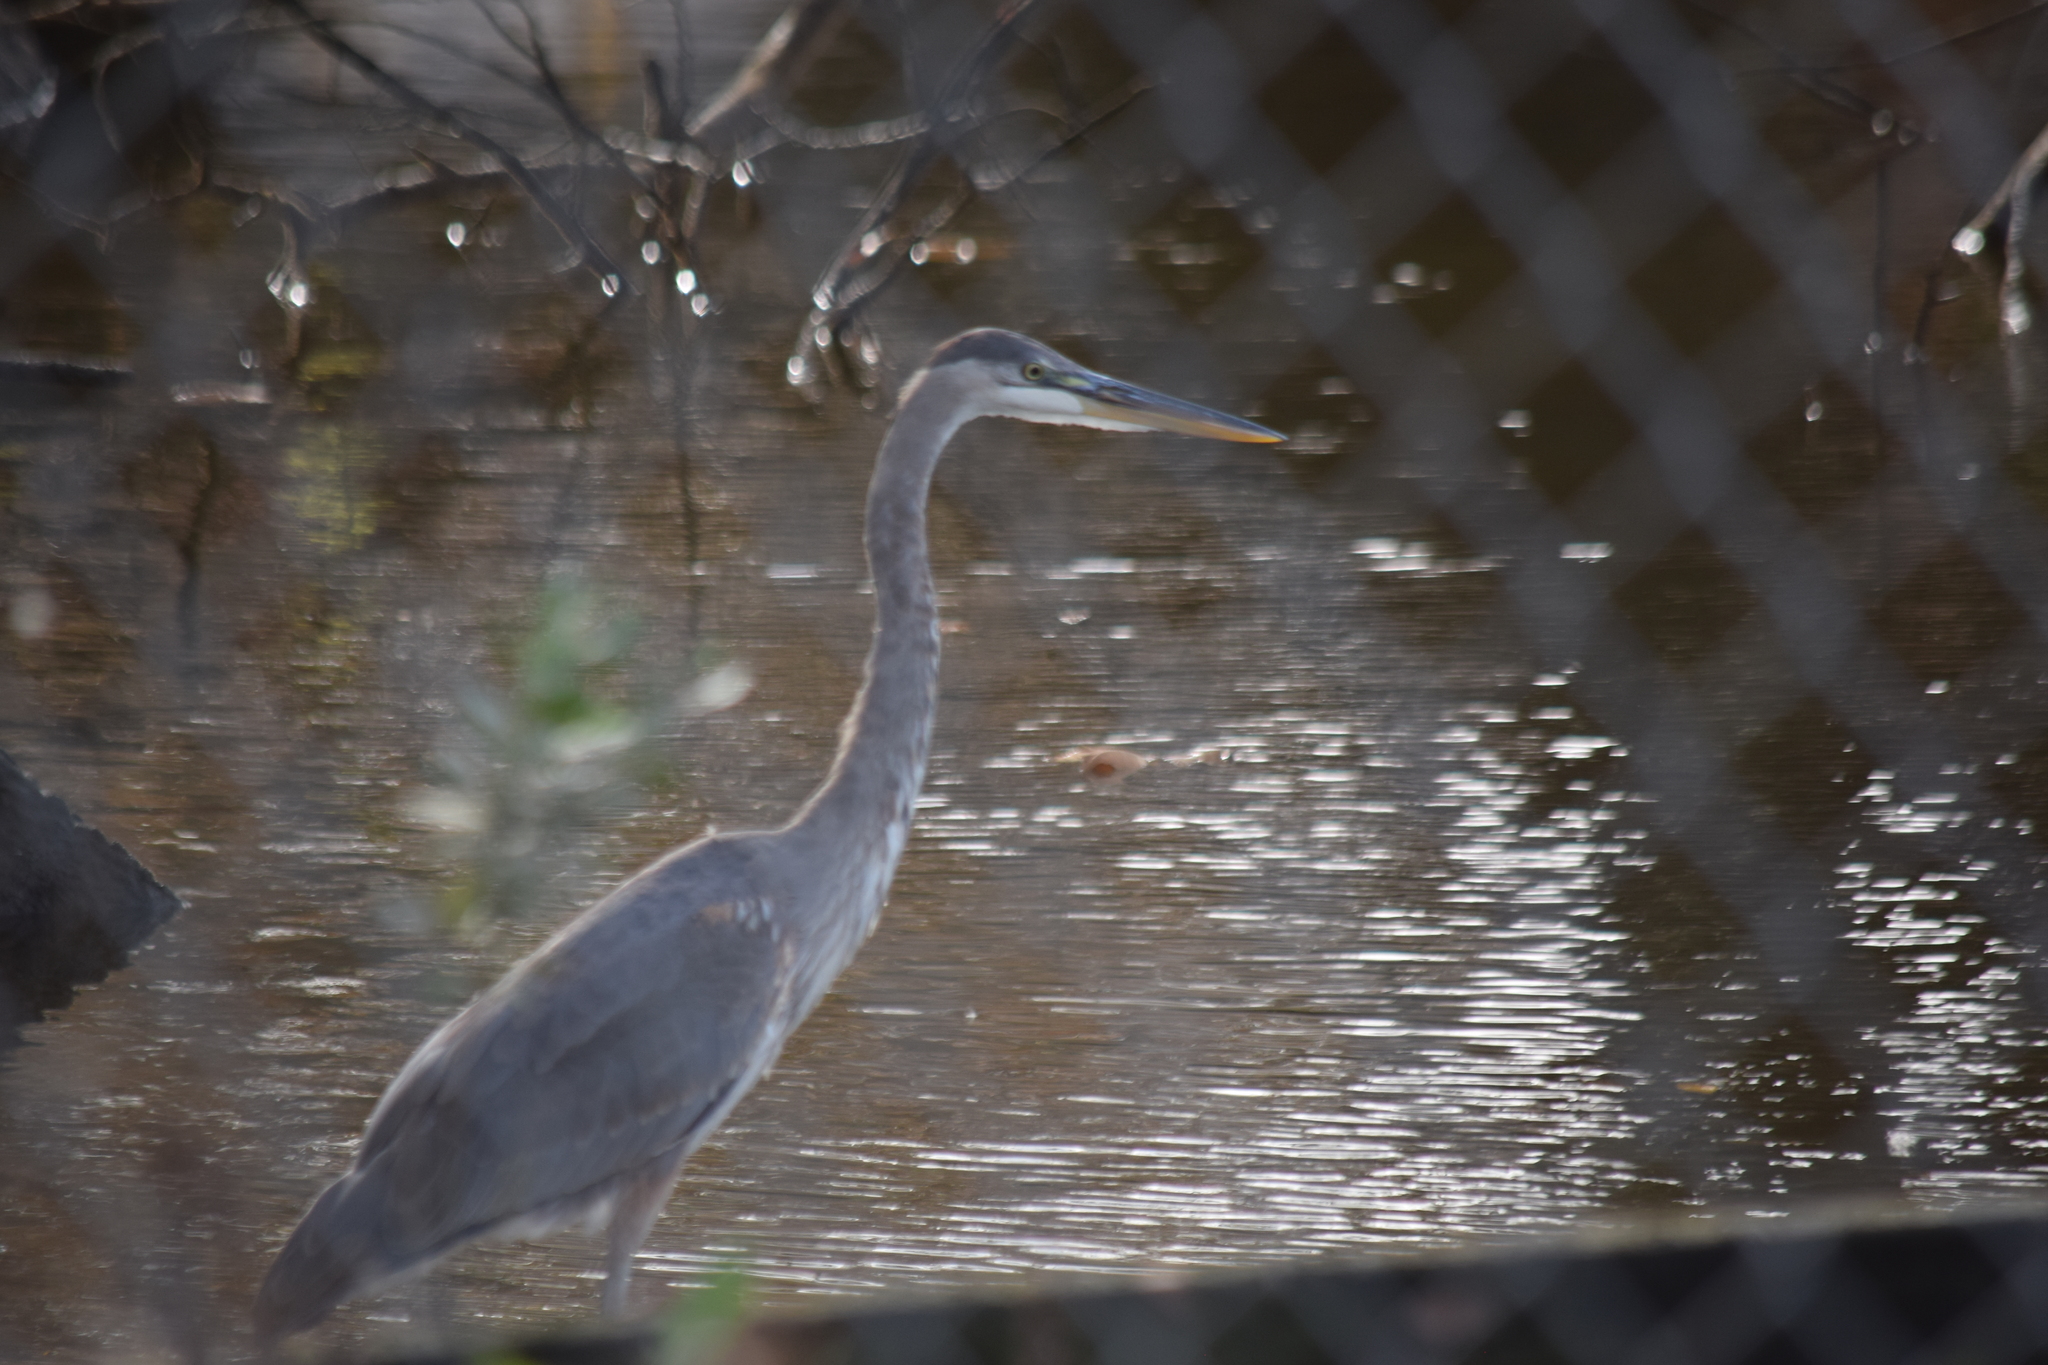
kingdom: Animalia
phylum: Chordata
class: Aves
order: Pelecaniformes
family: Ardeidae
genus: Ardea
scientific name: Ardea herodias
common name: Great blue heron
